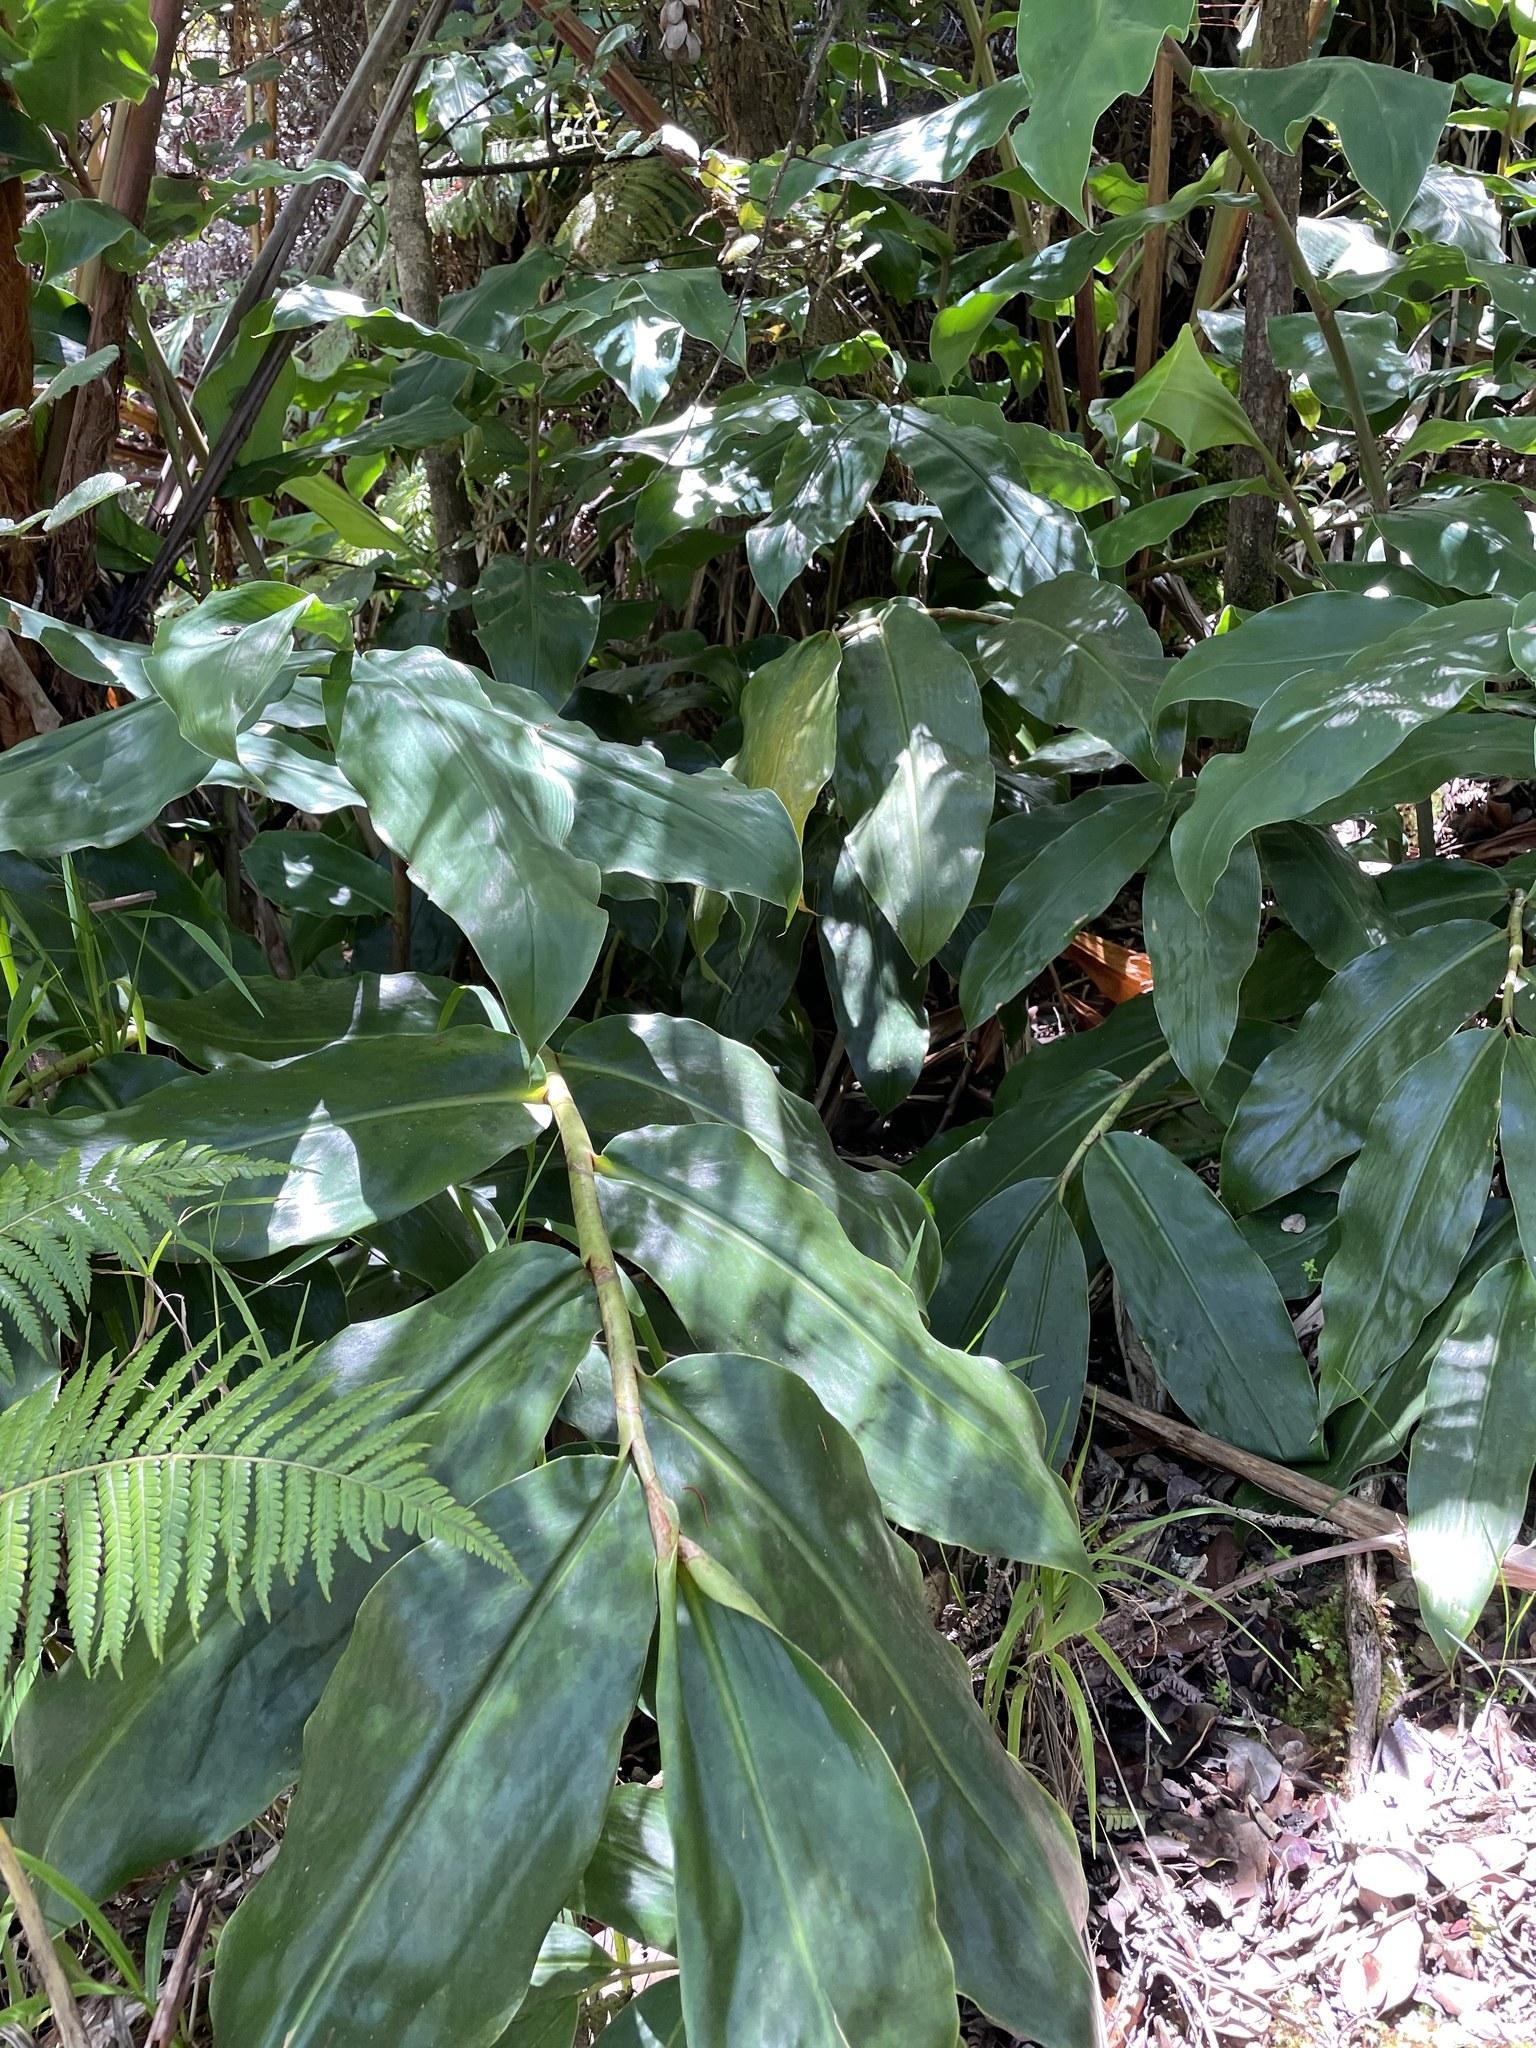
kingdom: Plantae
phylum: Tracheophyta
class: Liliopsida
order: Zingiberales
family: Zingiberaceae
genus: Hedychium
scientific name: Hedychium gardnerianum
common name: Himalayan ginger
